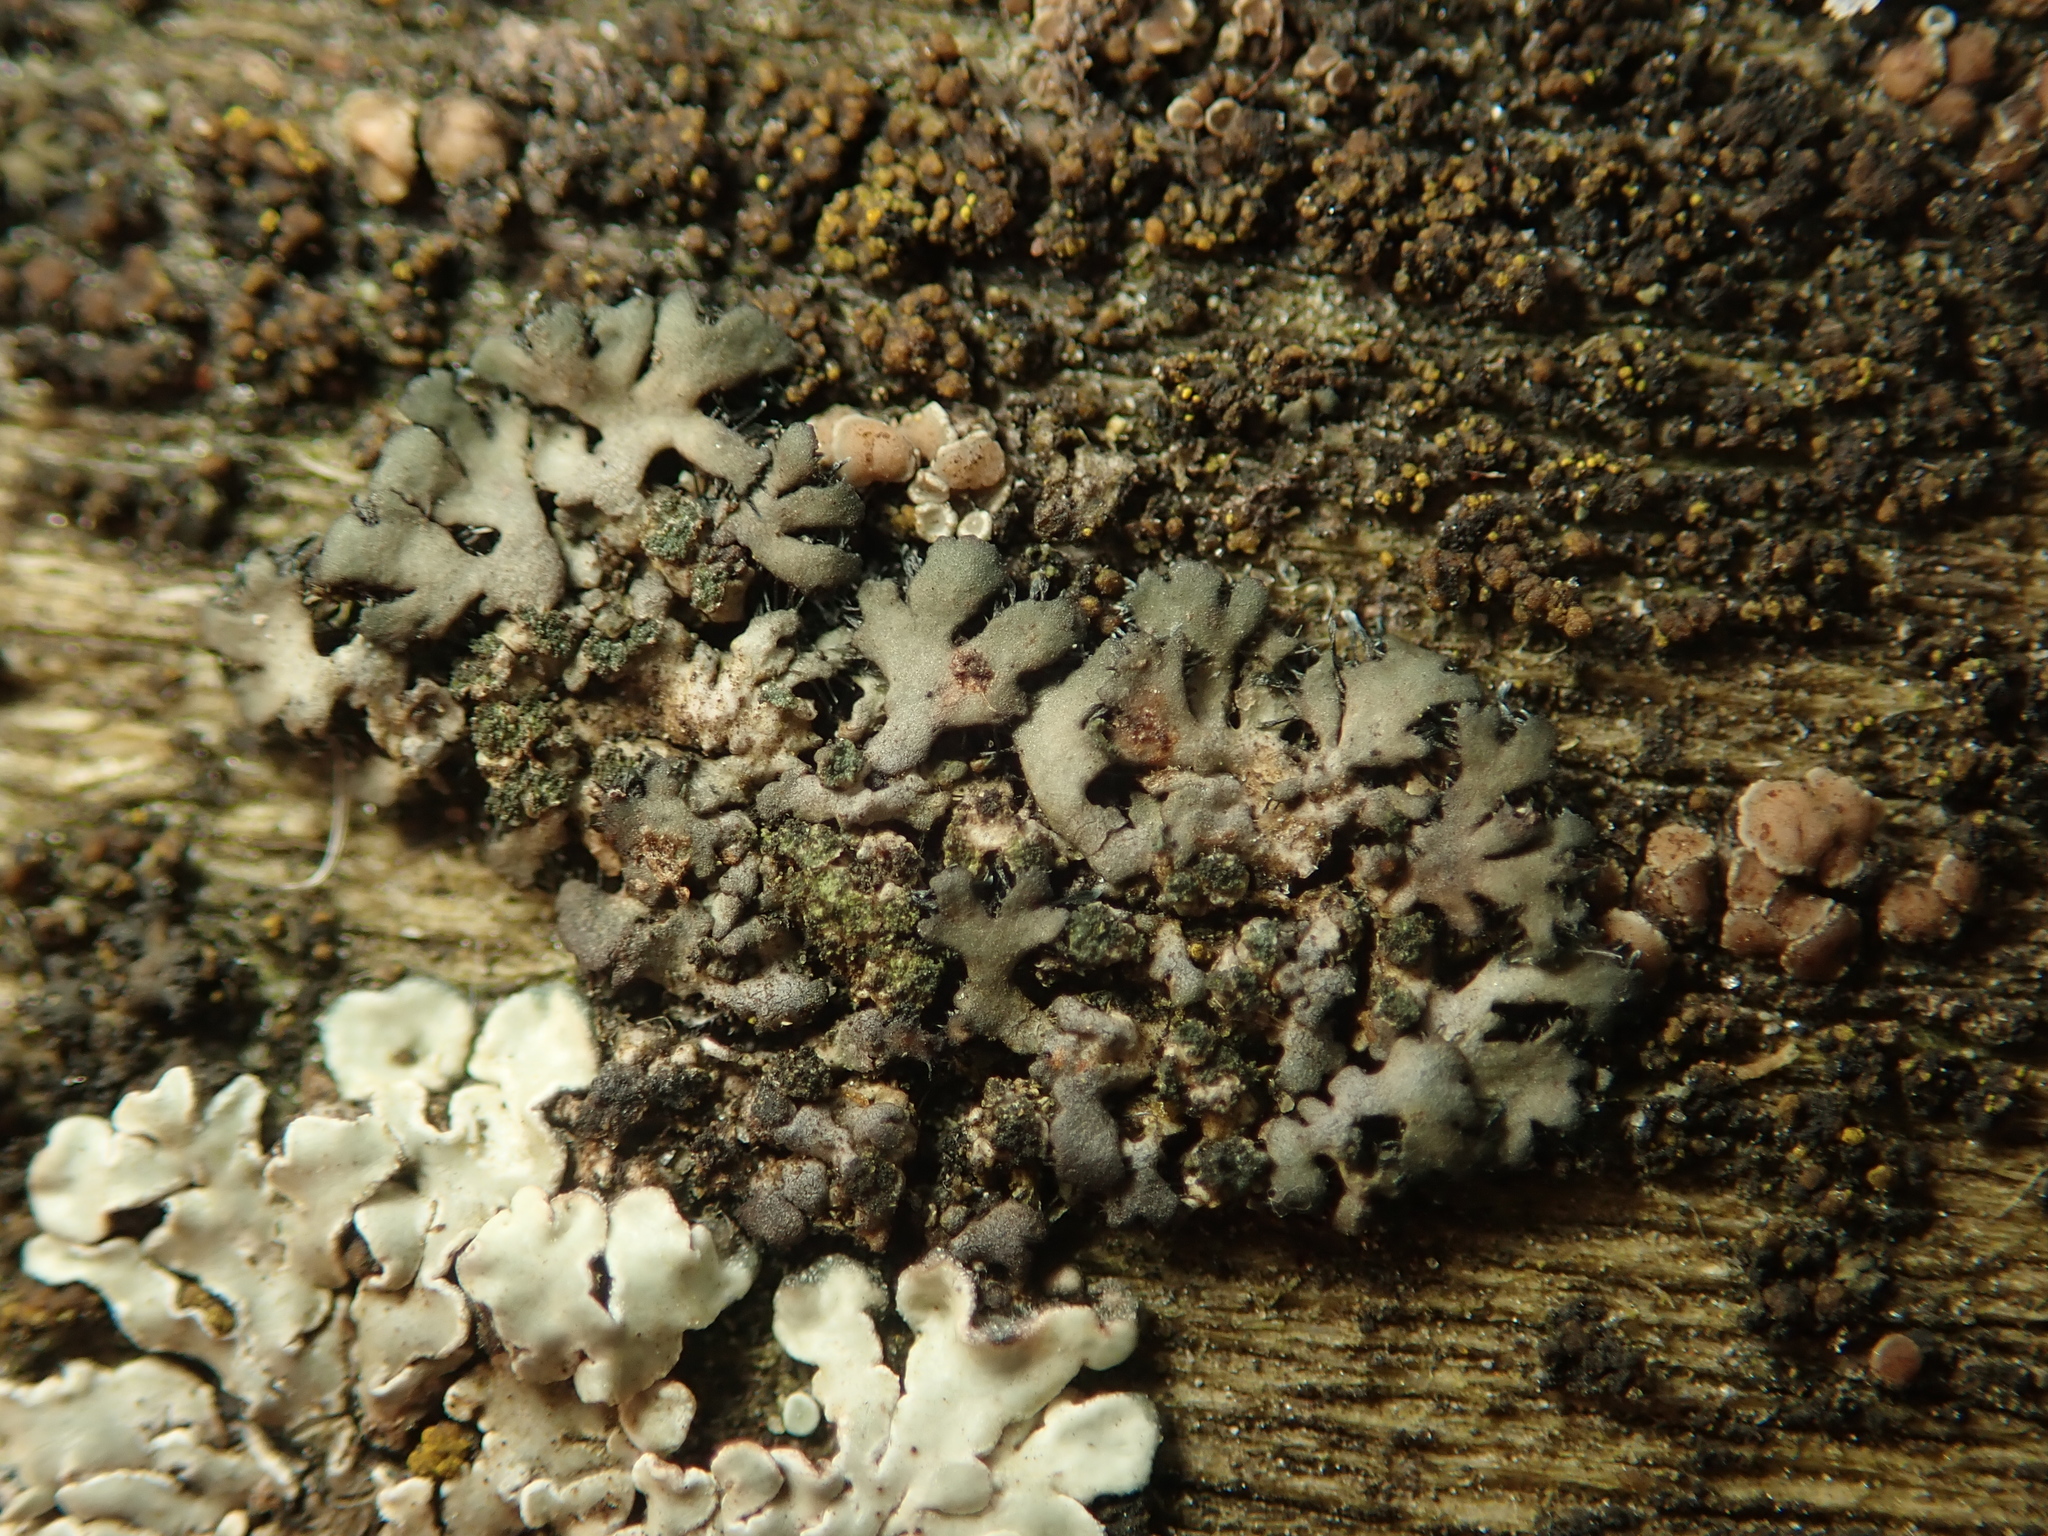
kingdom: Fungi
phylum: Ascomycota
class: Lecanoromycetes
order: Caliciales
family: Physciaceae
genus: Phaeophyscia
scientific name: Phaeophyscia orbicularis
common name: Mealy shadow lichen
